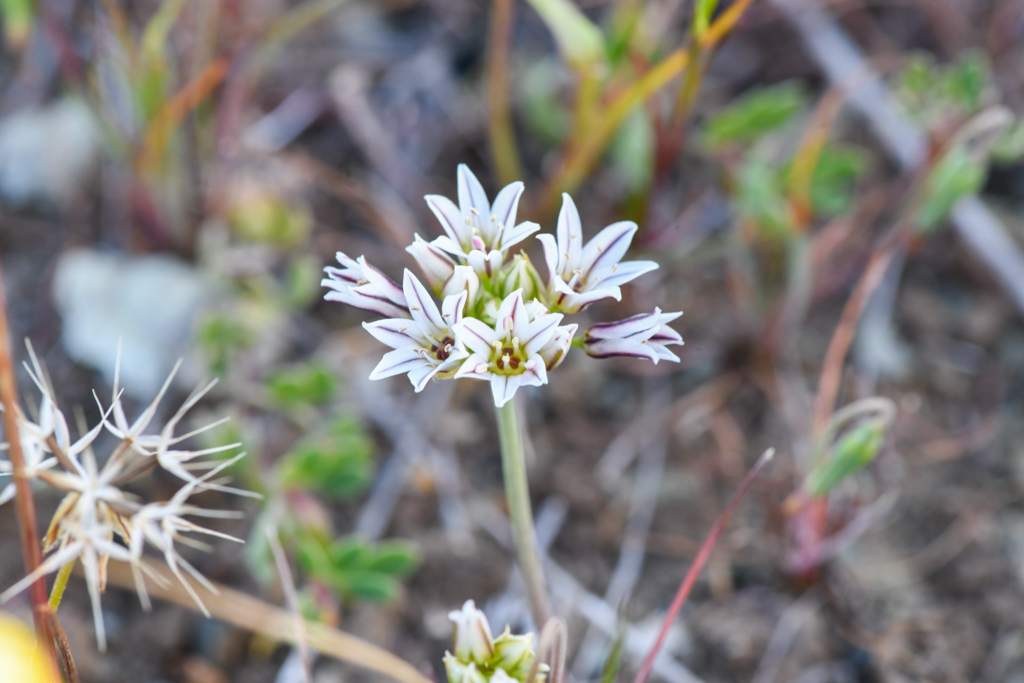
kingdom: Plantae
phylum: Tracheophyta
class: Liliopsida
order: Asparagales
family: Amaryllidaceae
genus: Allium
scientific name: Allium lacunosum
